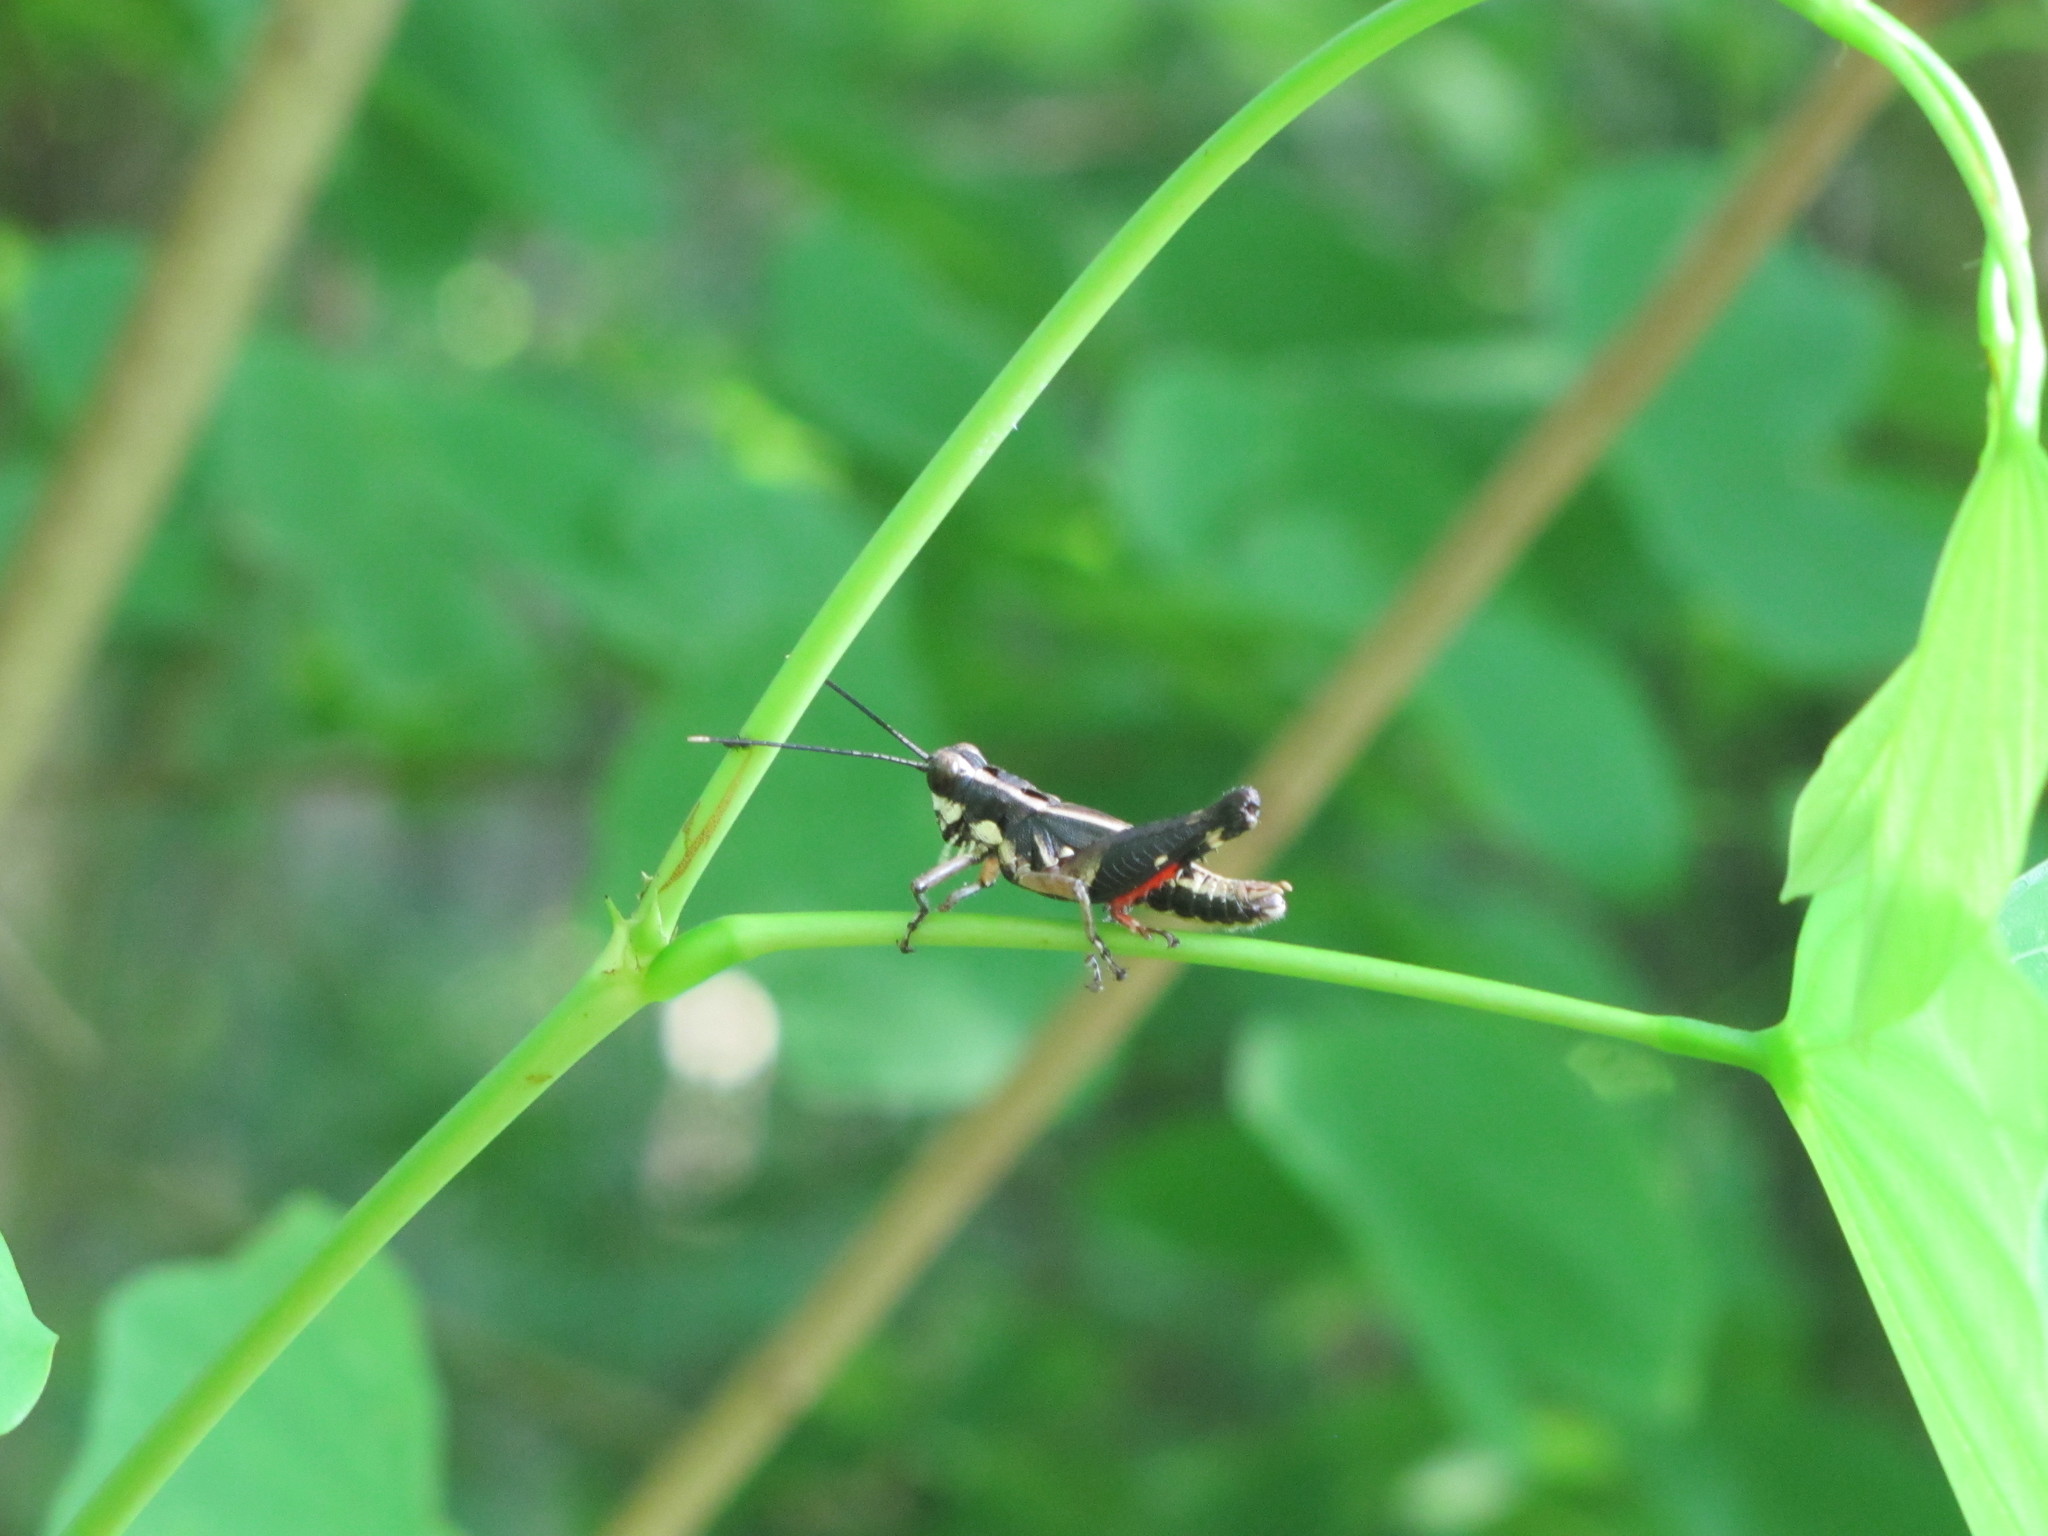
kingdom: Animalia
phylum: Arthropoda
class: Insecta
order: Orthoptera
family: Acrididae
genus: Traulia
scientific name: Traulia ornata
